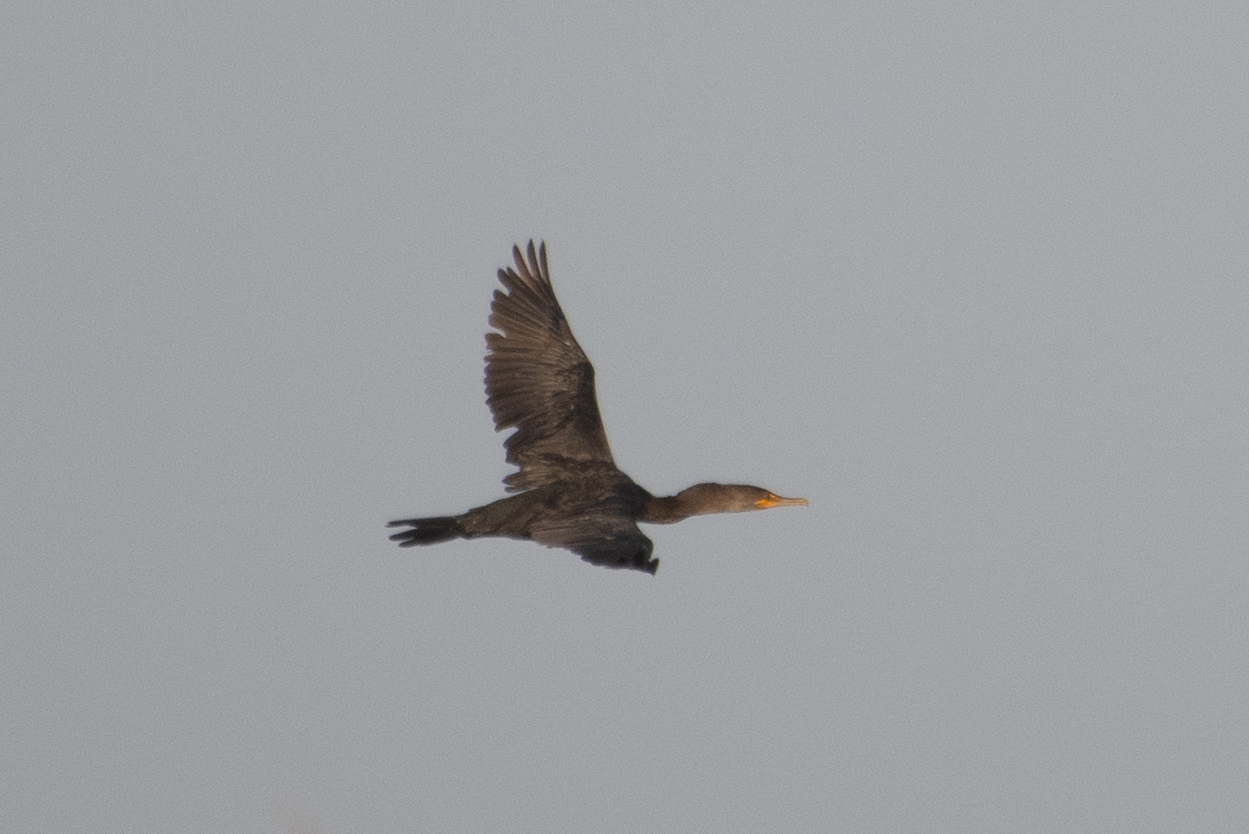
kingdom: Animalia
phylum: Chordata
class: Aves
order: Suliformes
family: Phalacrocoracidae
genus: Phalacrocorax
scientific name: Phalacrocorax auritus
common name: Double-crested cormorant
